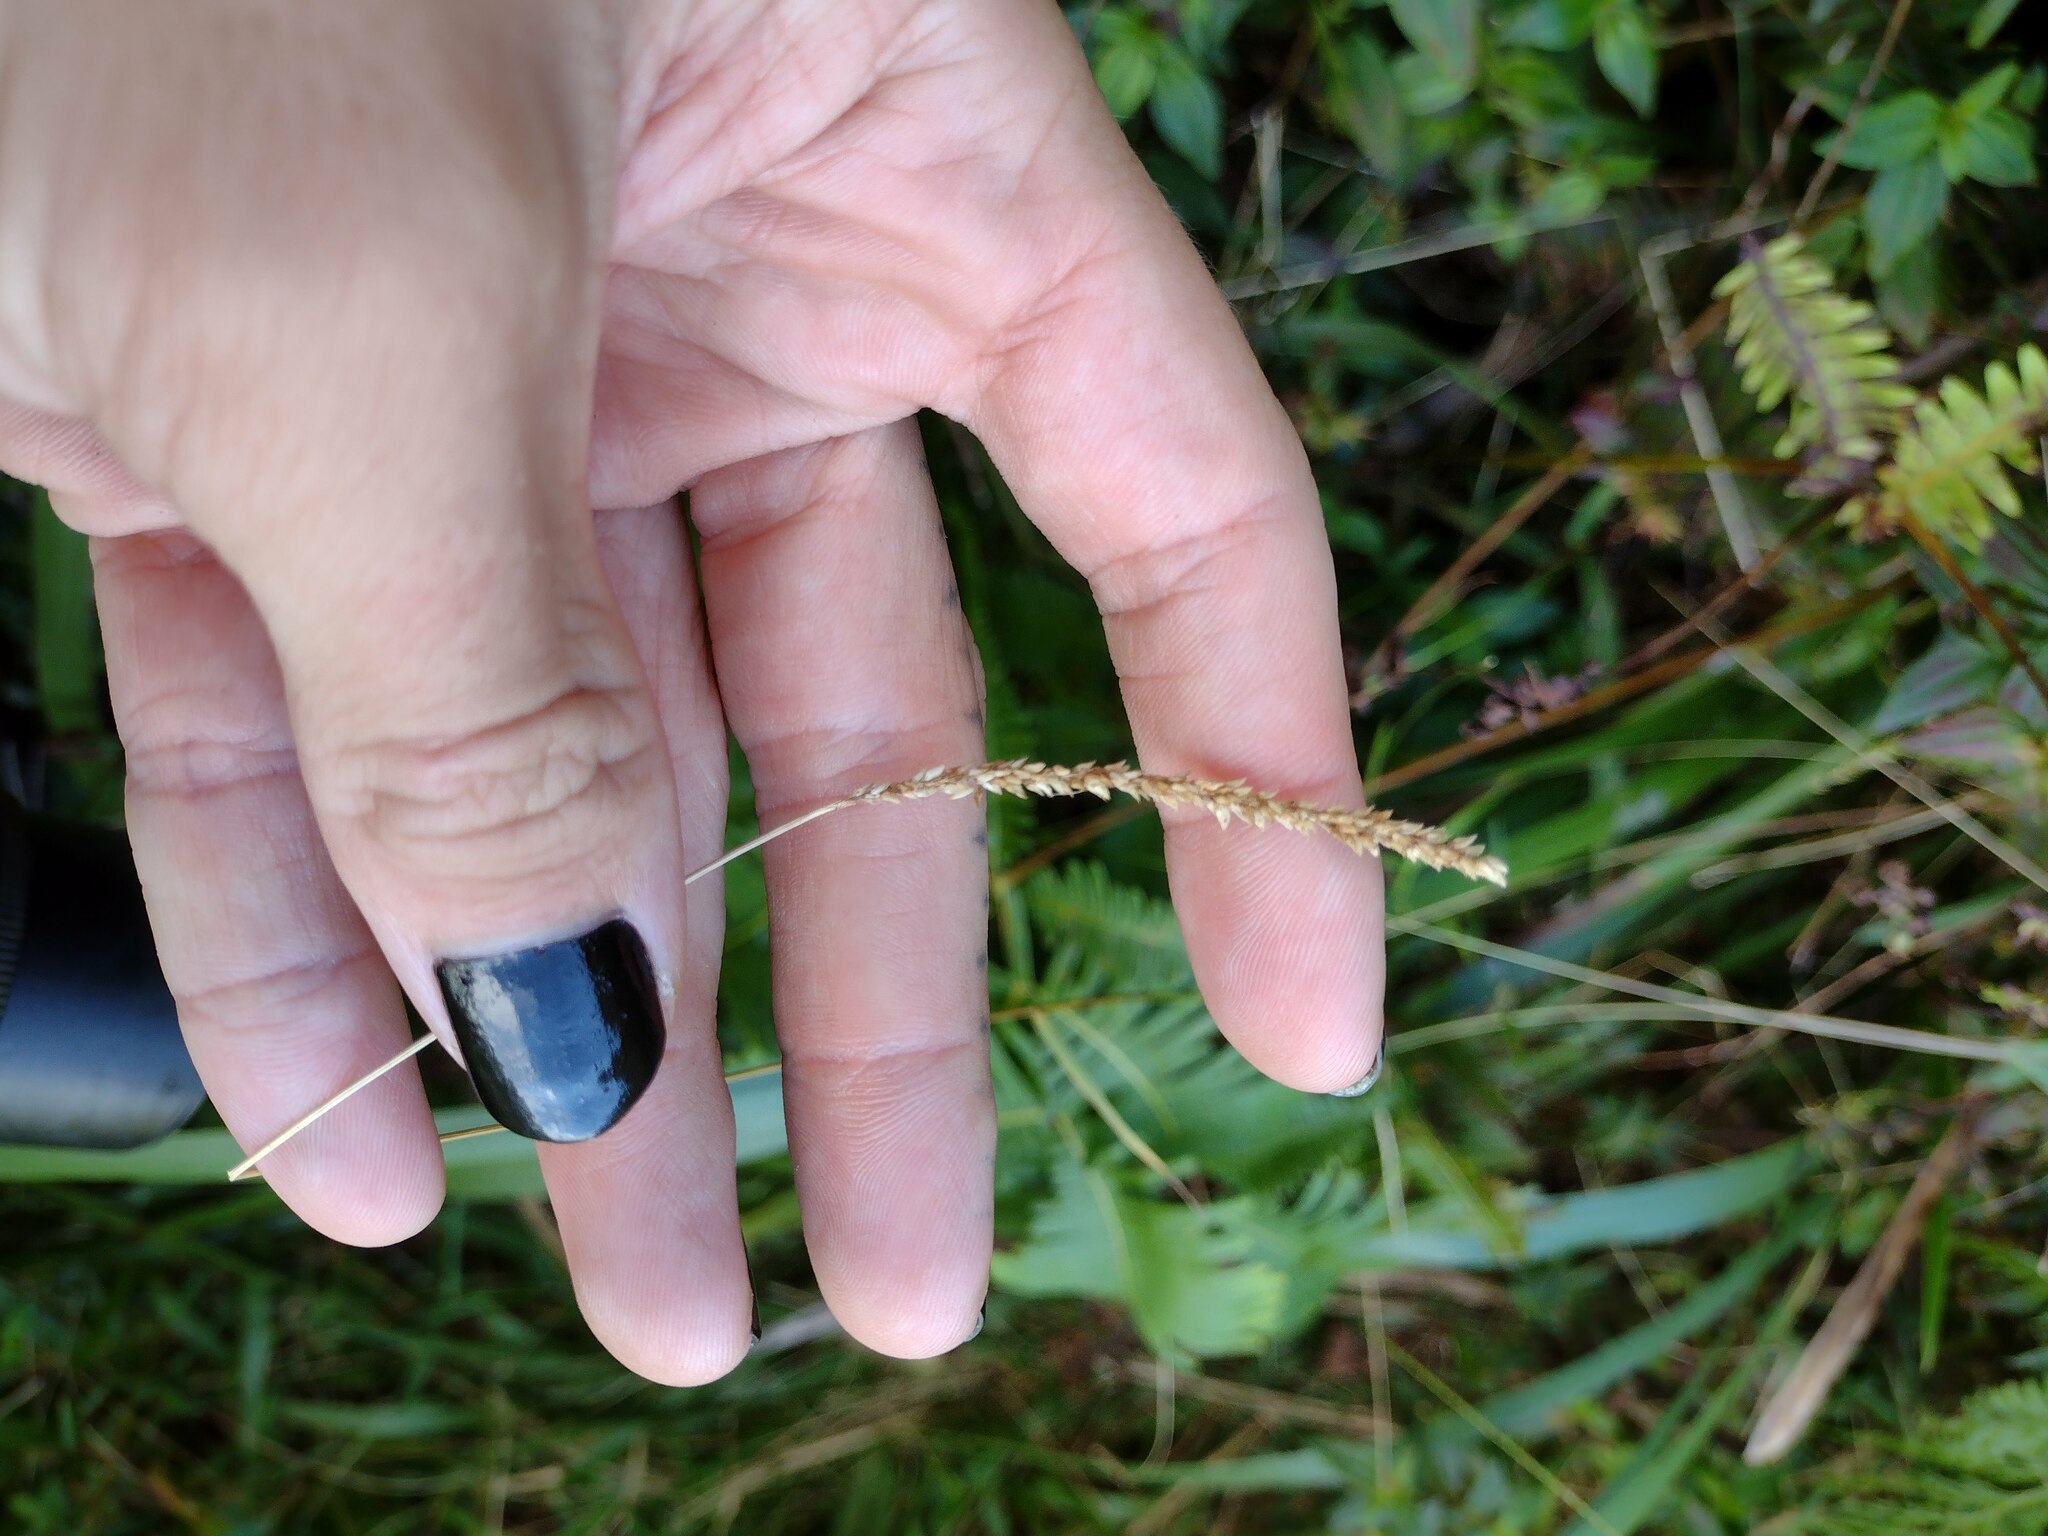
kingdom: Plantae
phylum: Tracheophyta
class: Liliopsida
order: Poales
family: Poaceae
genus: Sacciolepis
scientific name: Sacciolepis indica
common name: Glenwoodgrass
